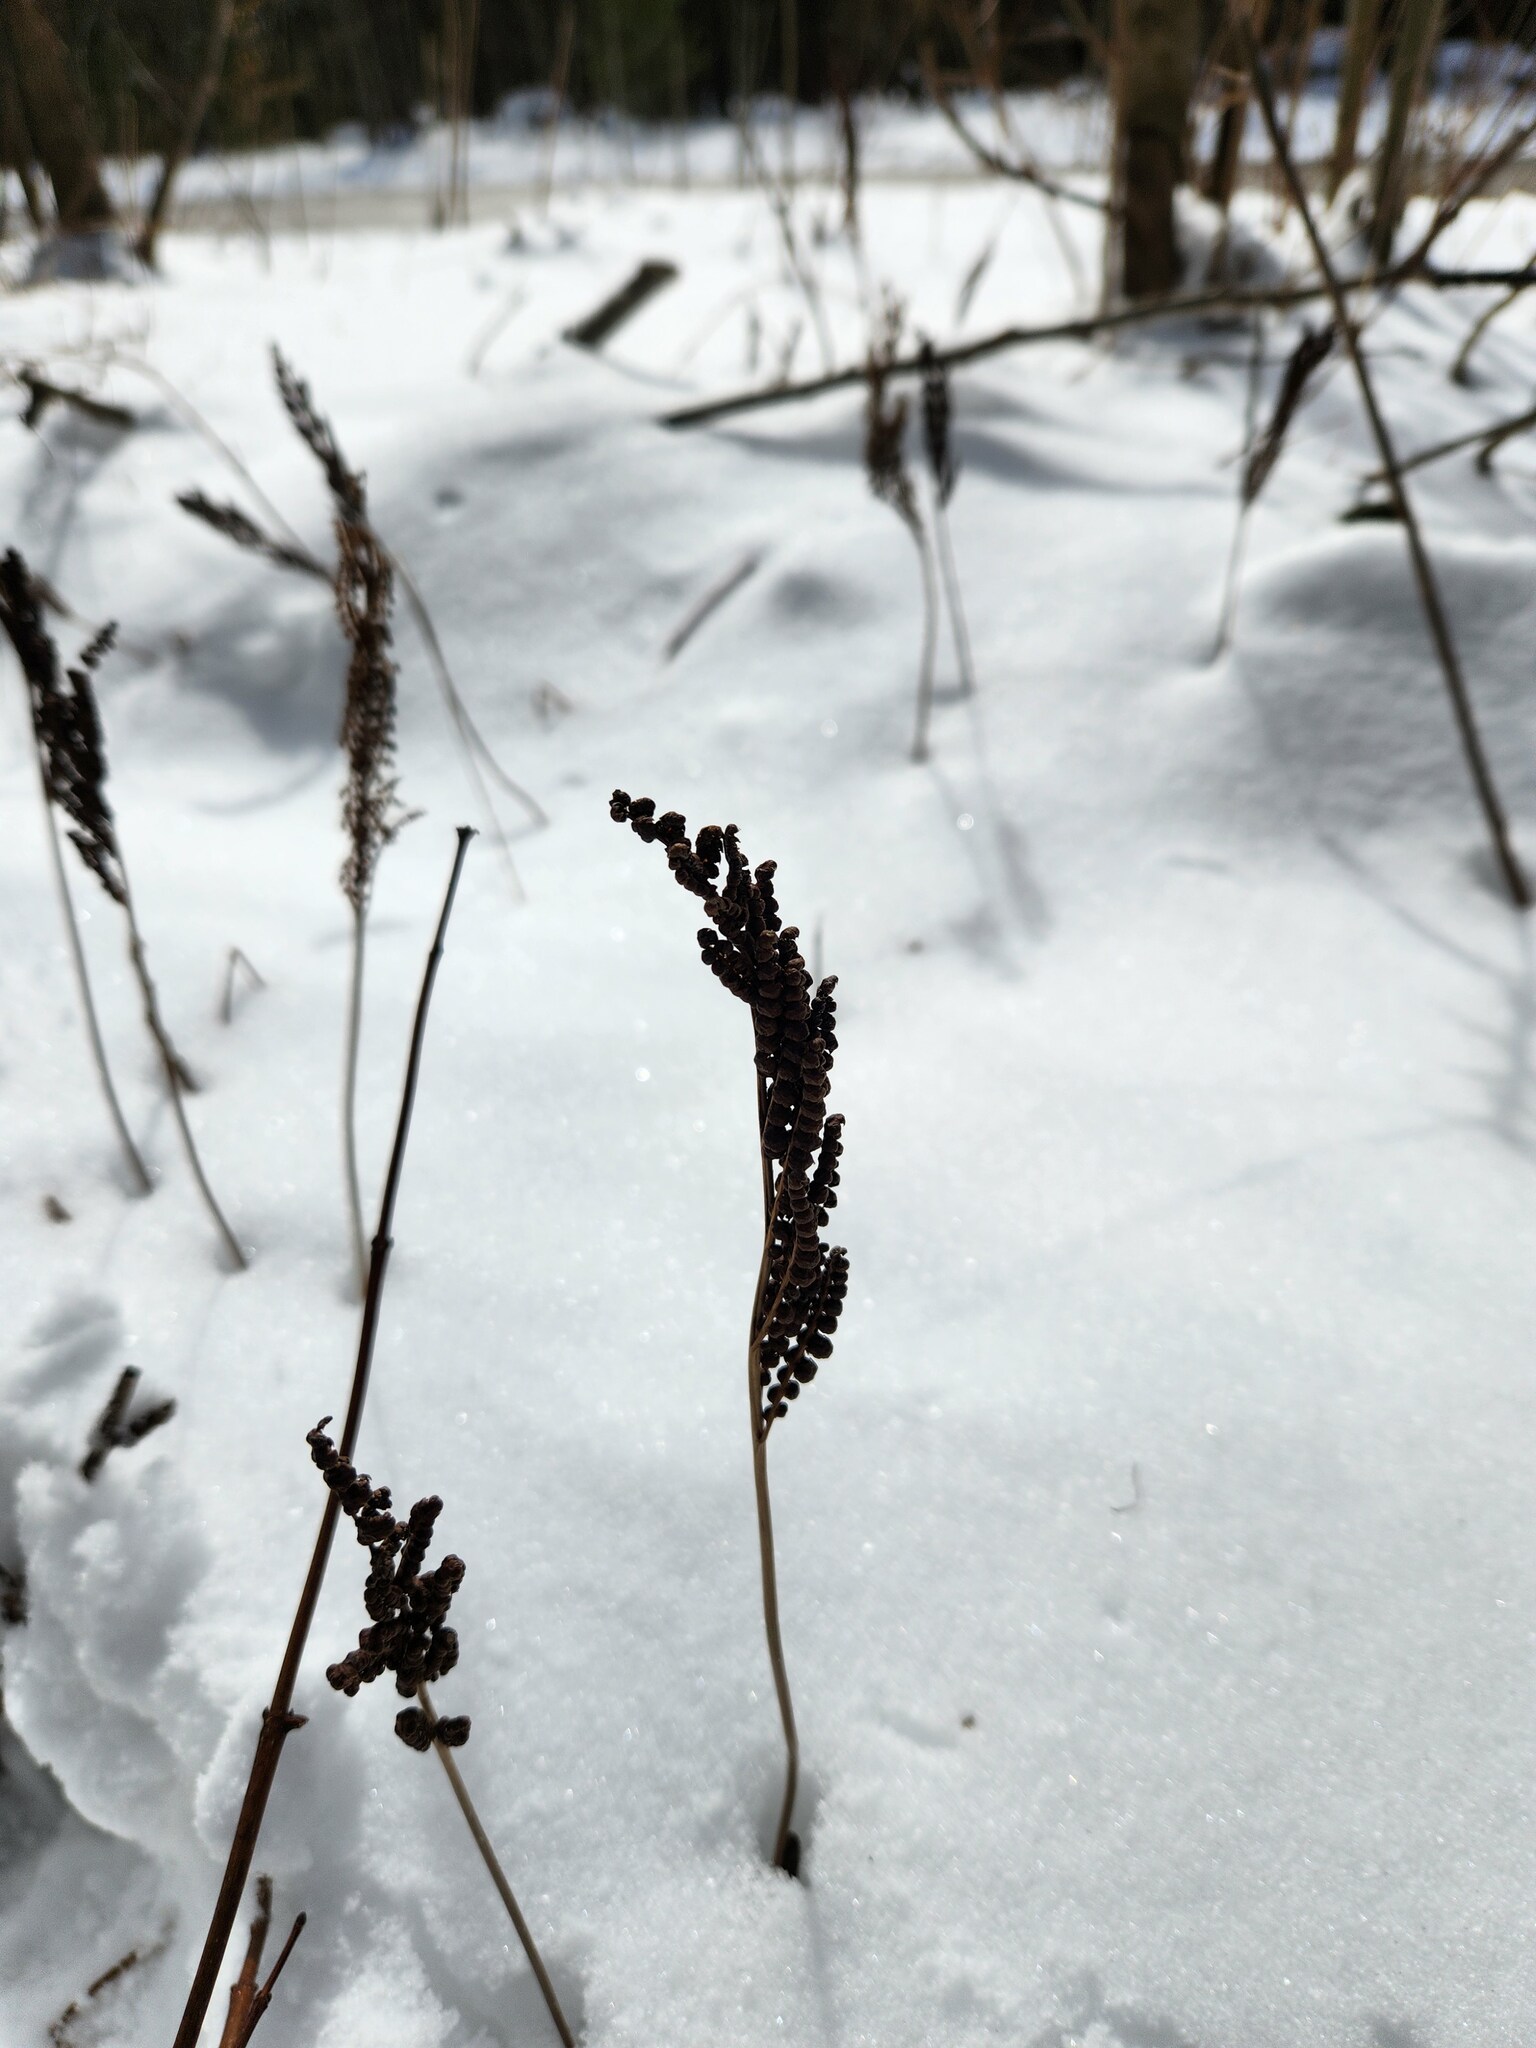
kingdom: Plantae
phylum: Tracheophyta
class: Polypodiopsida
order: Polypodiales
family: Onocleaceae
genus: Onoclea
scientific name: Onoclea sensibilis
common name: Sensitive fern
